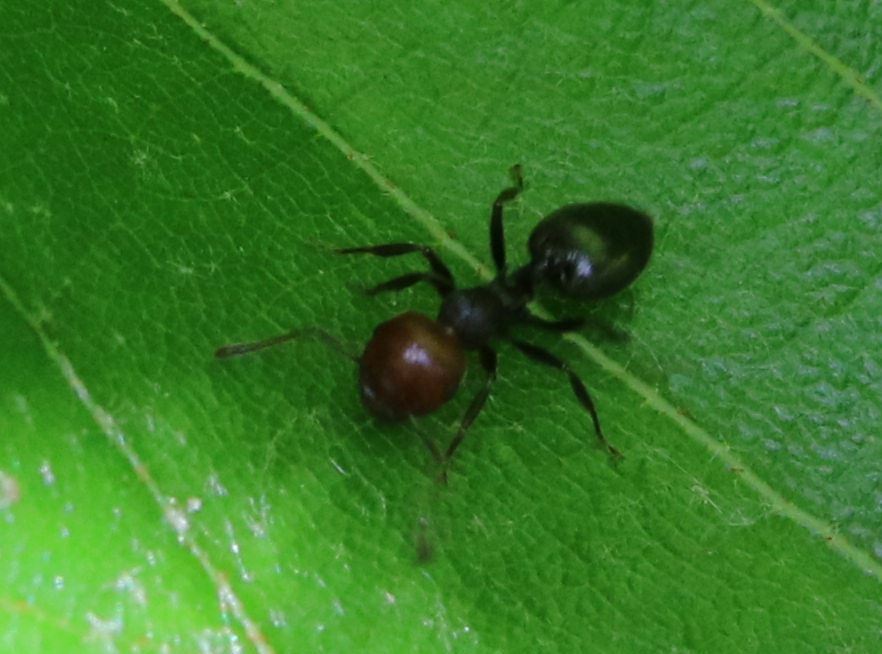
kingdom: Animalia
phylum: Arthropoda
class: Insecta
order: Hymenoptera
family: Formicidae
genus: Crematogaster
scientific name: Crematogaster scutellaris
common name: Fourmi du liège
